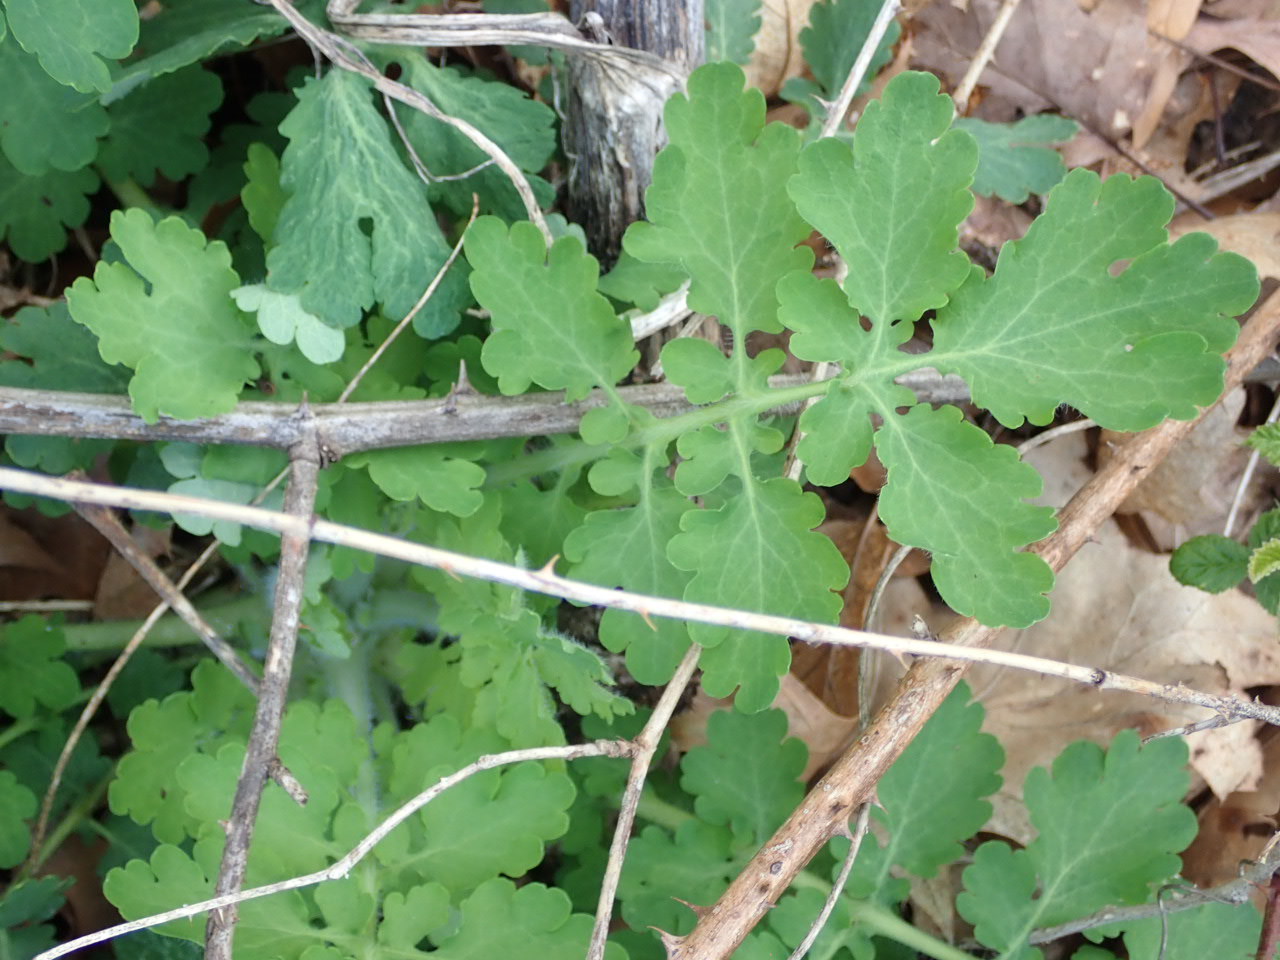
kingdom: Plantae
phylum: Tracheophyta
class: Magnoliopsida
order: Ranunculales
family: Papaveraceae
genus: Chelidonium
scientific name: Chelidonium majus
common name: Greater celandine
